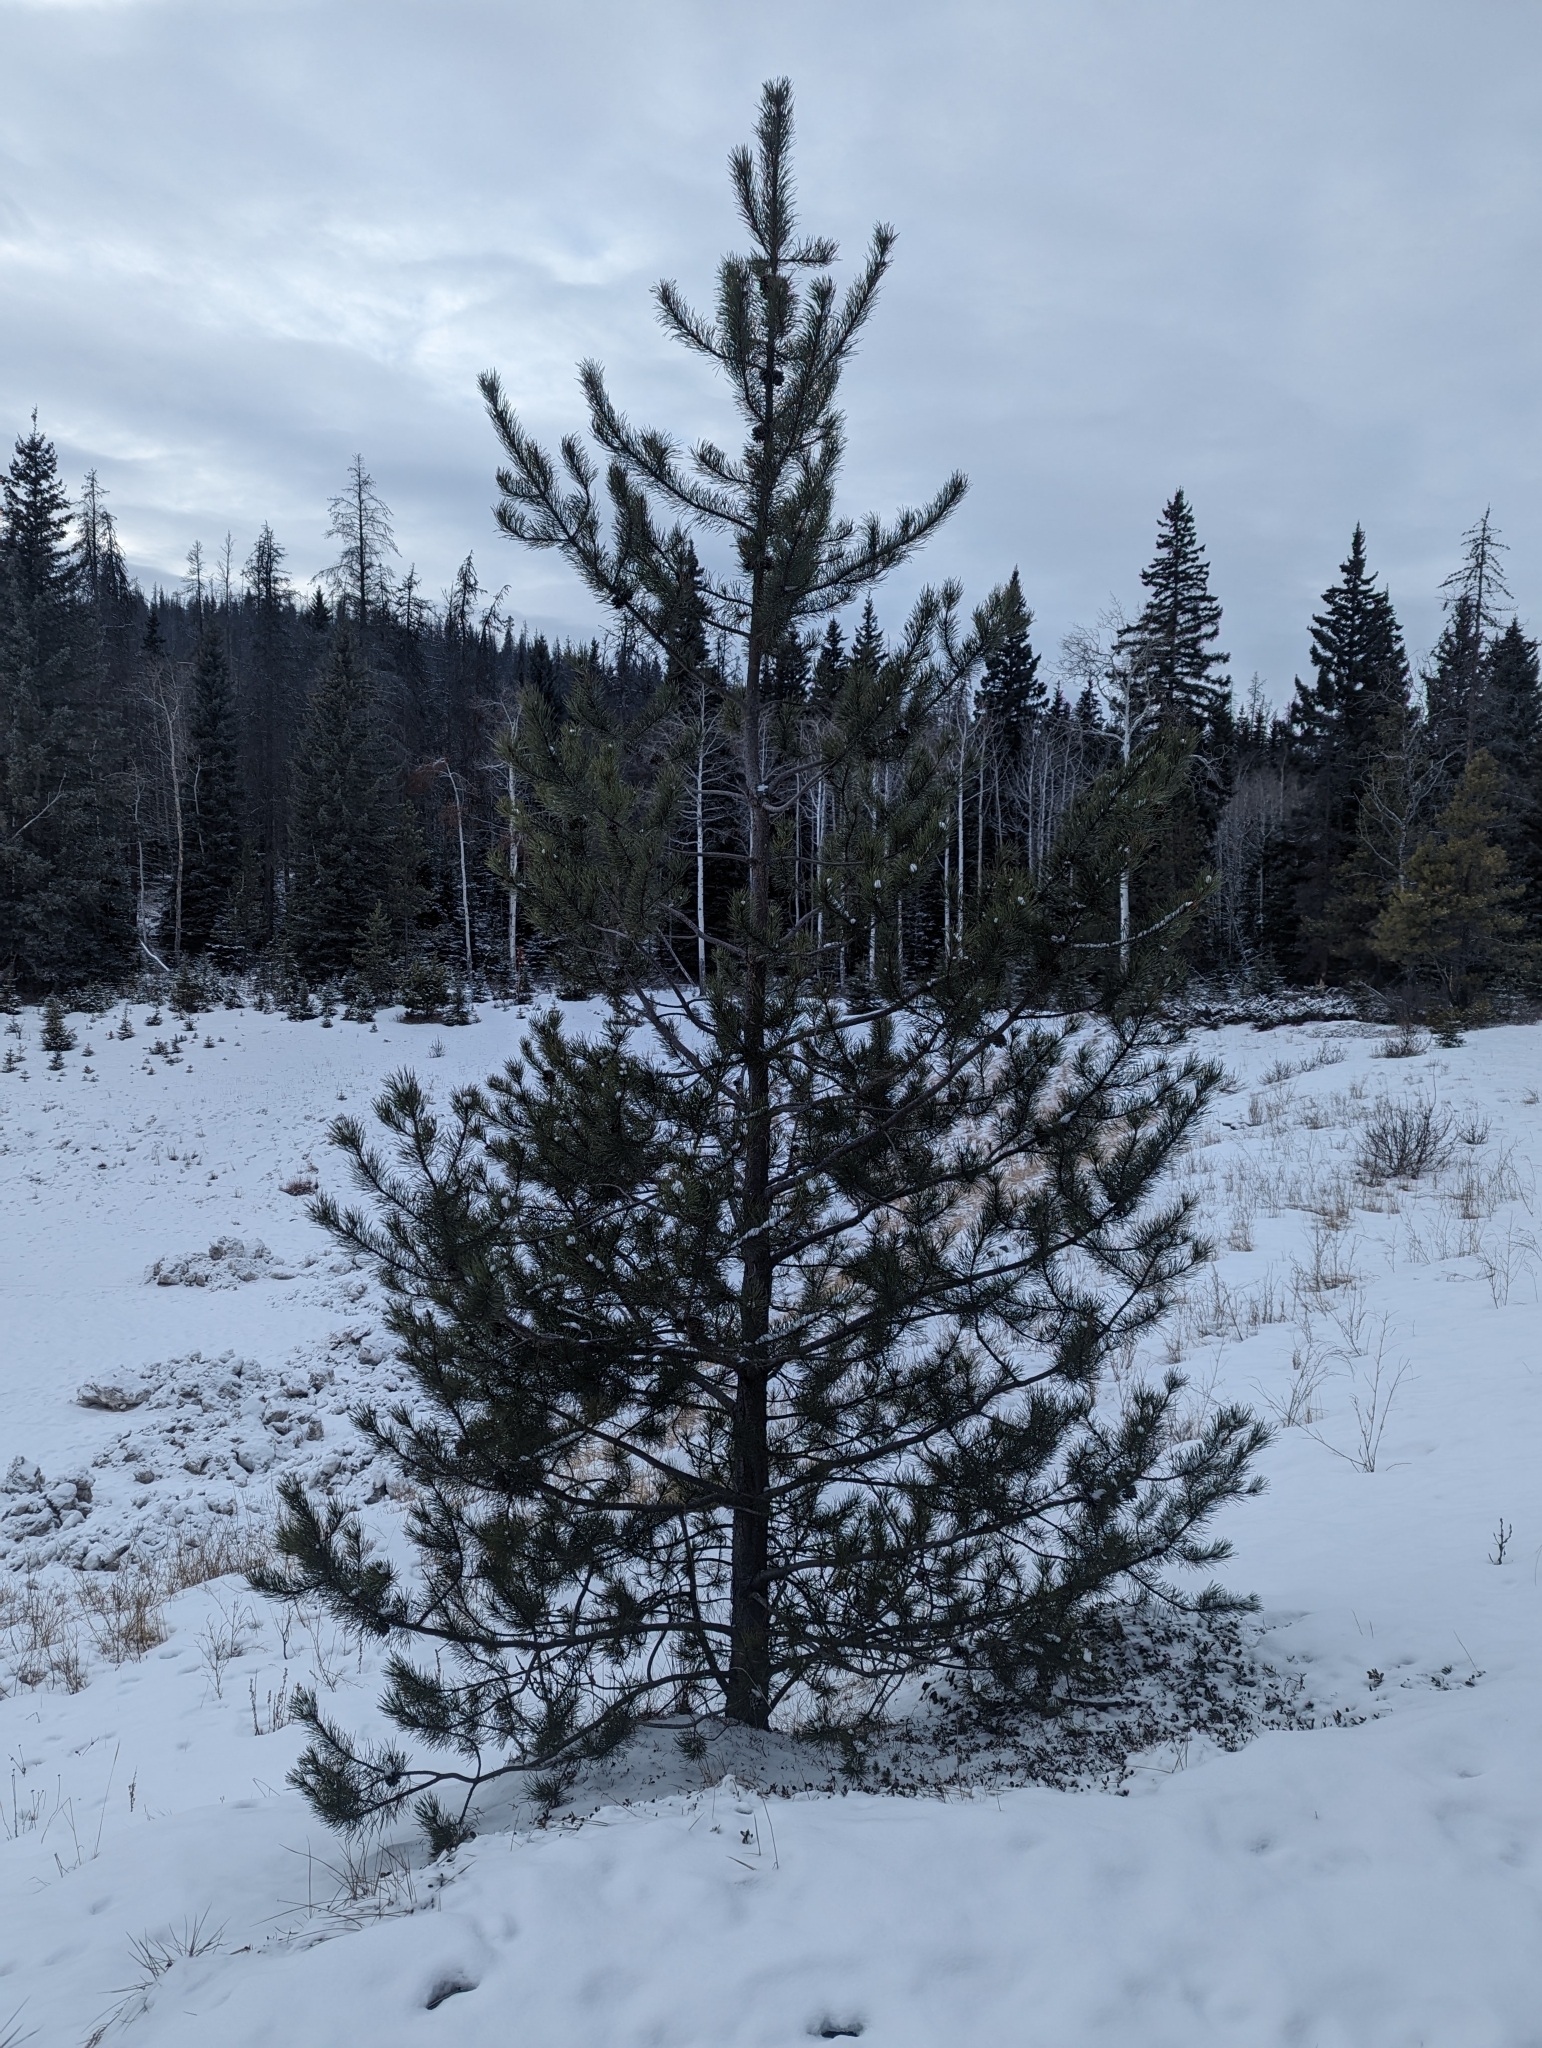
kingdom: Plantae
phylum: Tracheophyta
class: Pinopsida
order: Pinales
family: Pinaceae
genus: Pinus
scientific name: Pinus contorta
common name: Lodgepole pine
